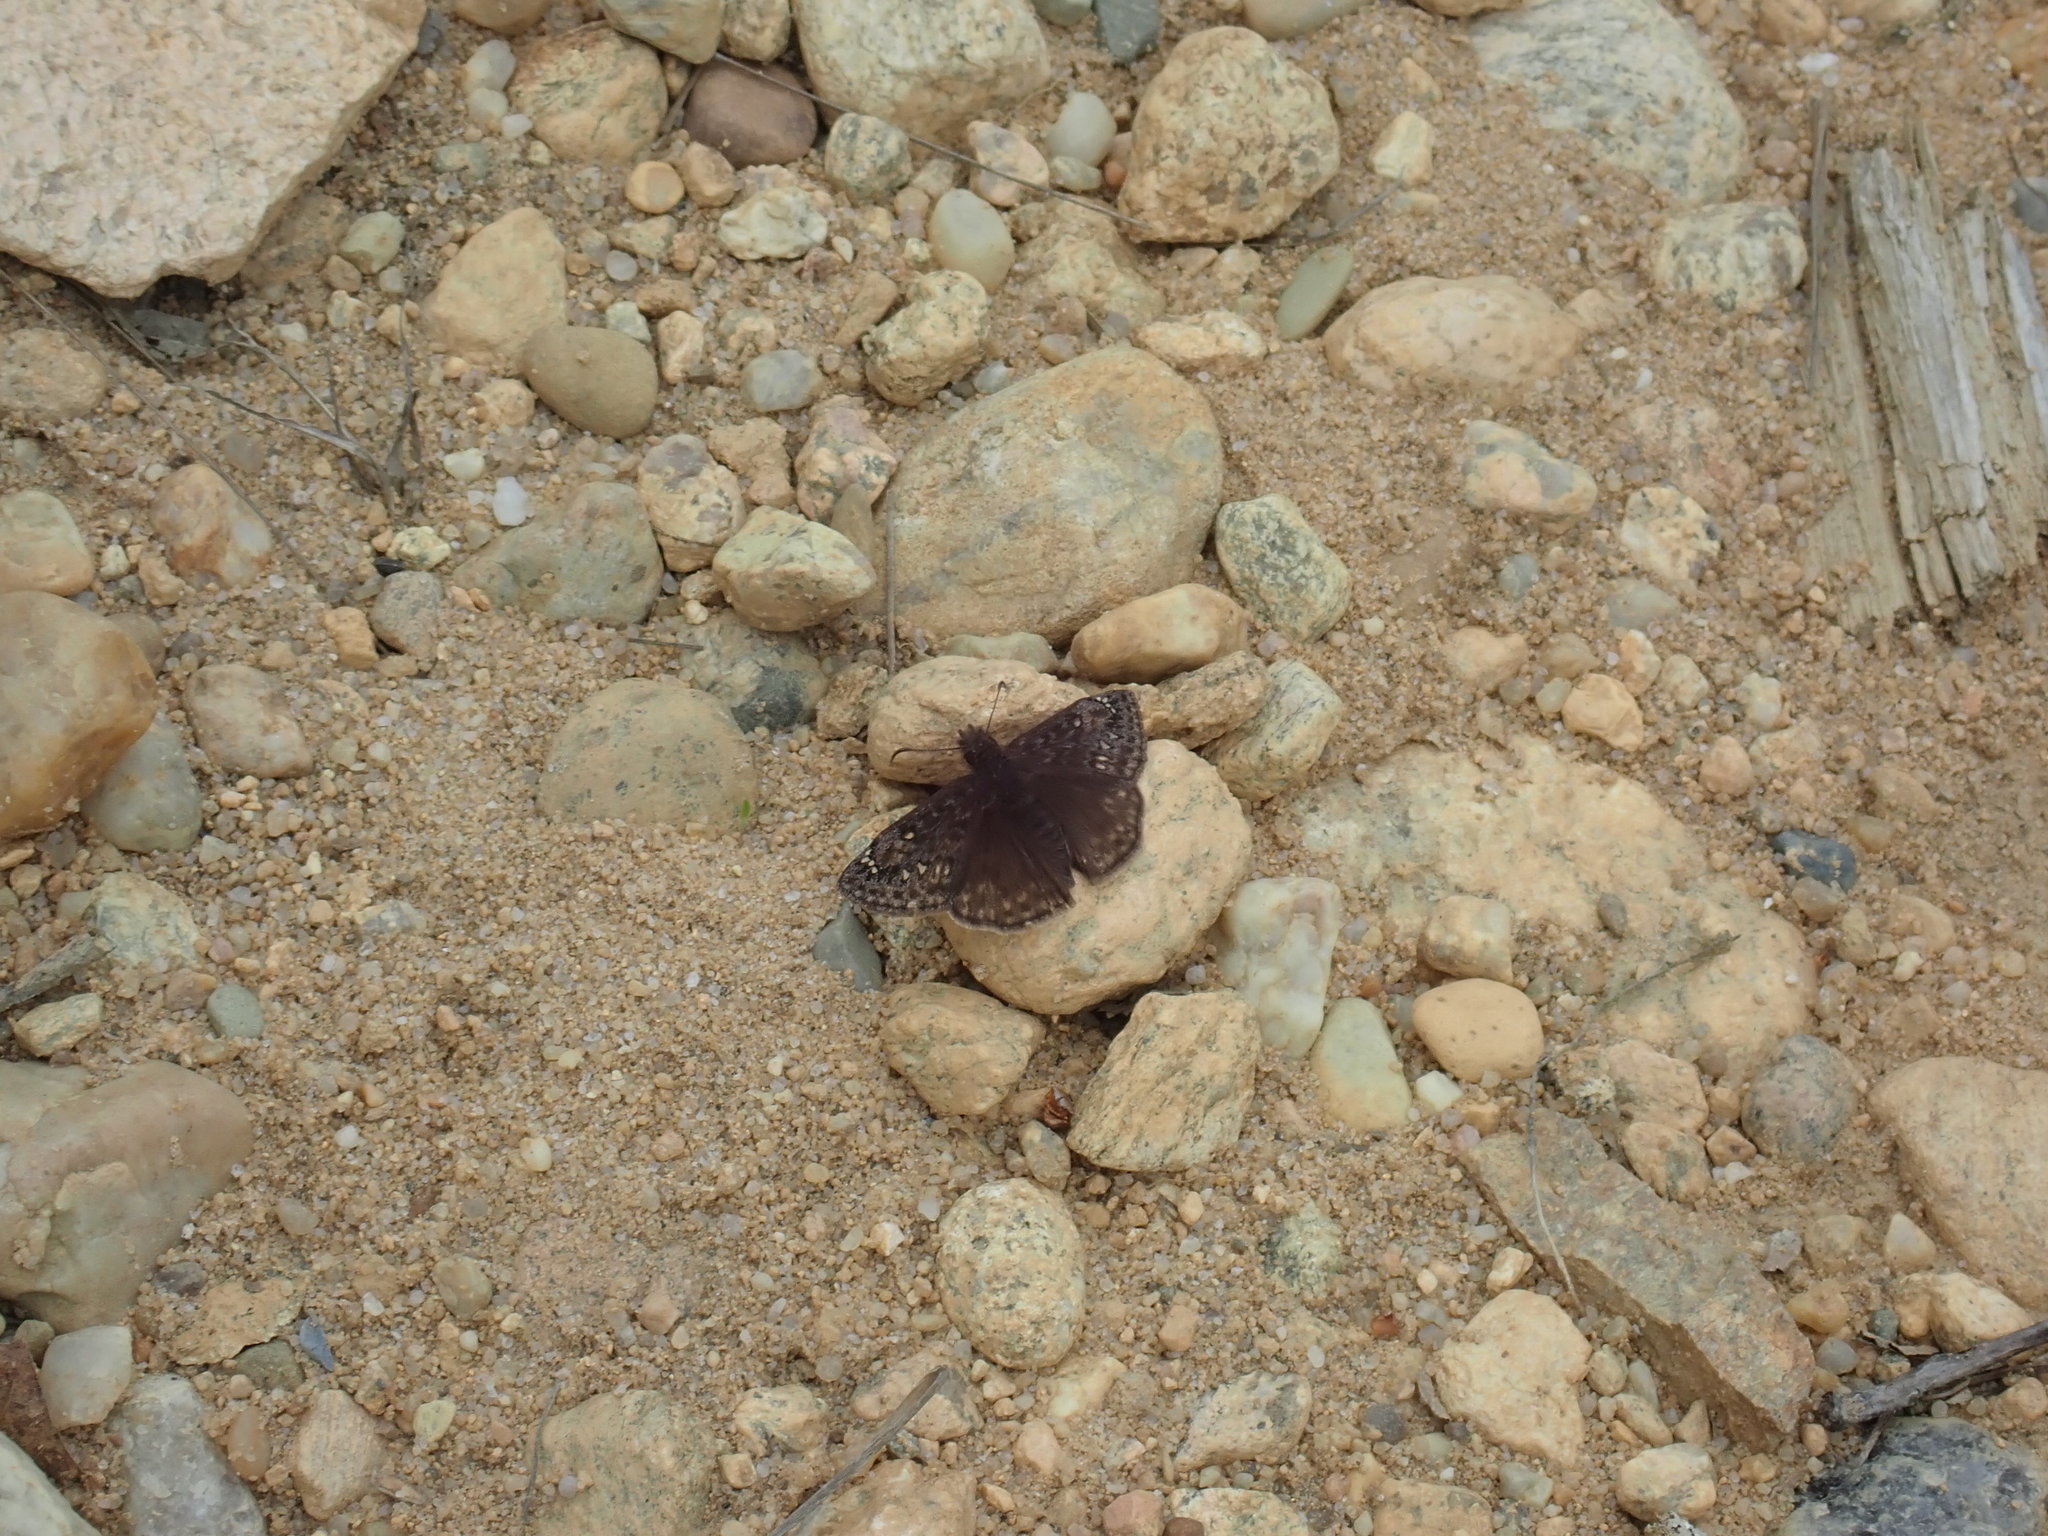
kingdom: Animalia
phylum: Arthropoda
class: Insecta
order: Lepidoptera
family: Hesperiidae
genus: Erynnis
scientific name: Erynnis juvenalis
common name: Juvenal's duskywing
